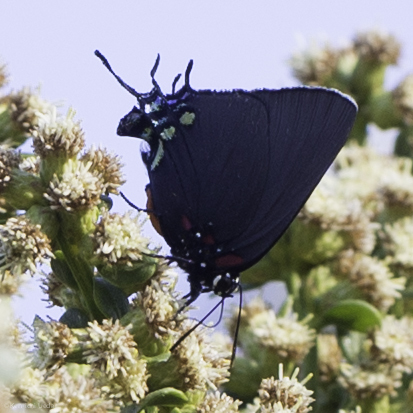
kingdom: Animalia
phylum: Arthropoda
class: Insecta
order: Lepidoptera
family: Lycaenidae
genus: Atlides
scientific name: Atlides halesus
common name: Great purple hairstreak
